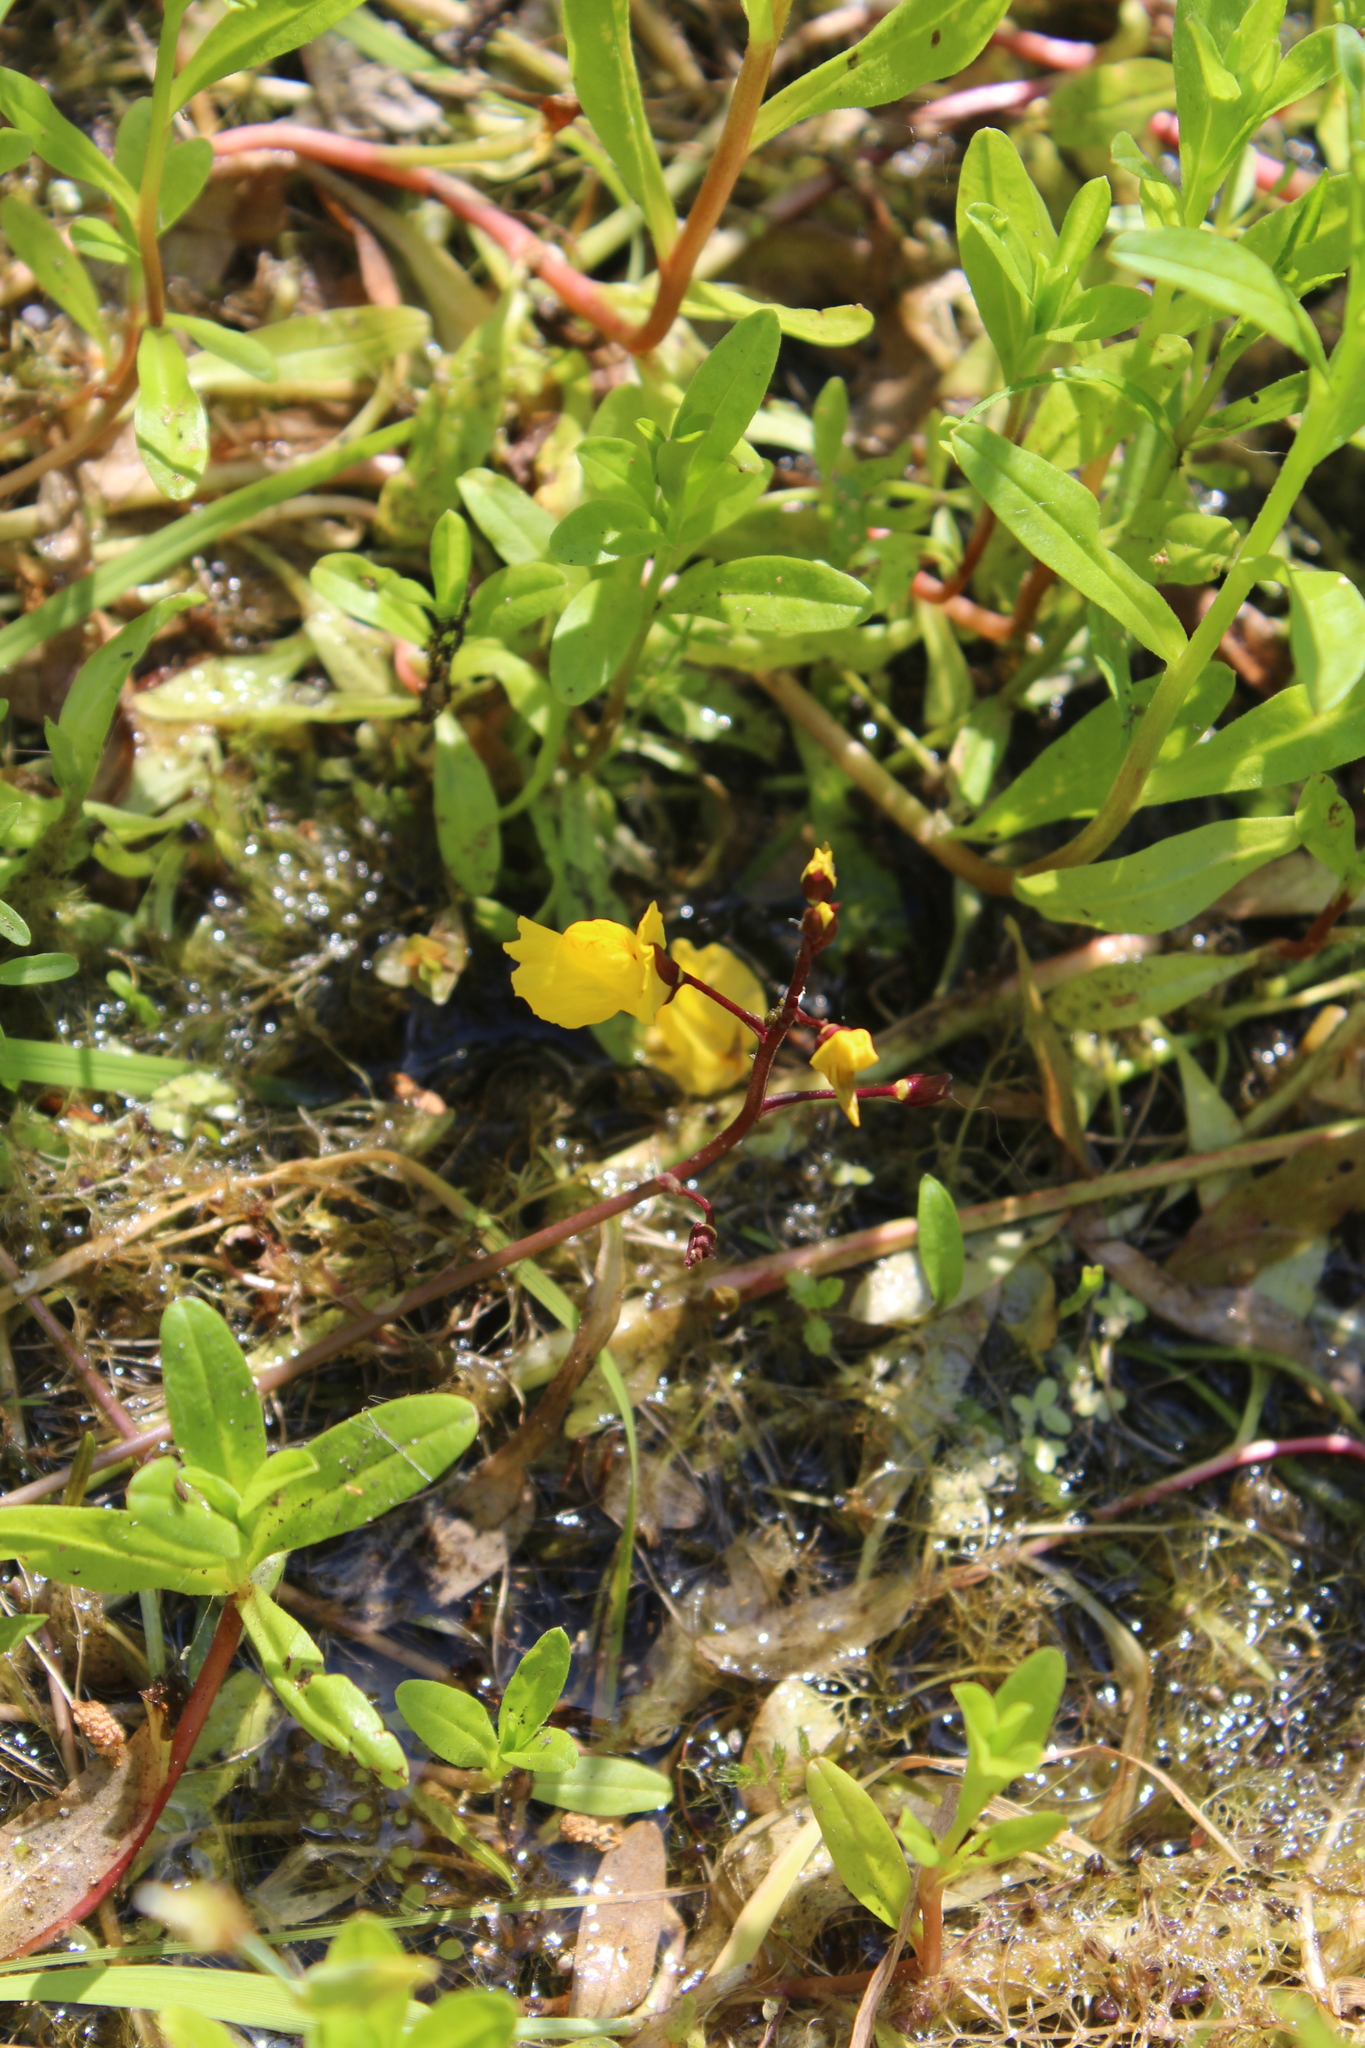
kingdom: Plantae
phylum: Tracheophyta
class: Magnoliopsida
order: Lamiales
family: Lentibulariaceae
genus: Utricularia
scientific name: Utricularia vulgaris
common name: Greater bladderwort
